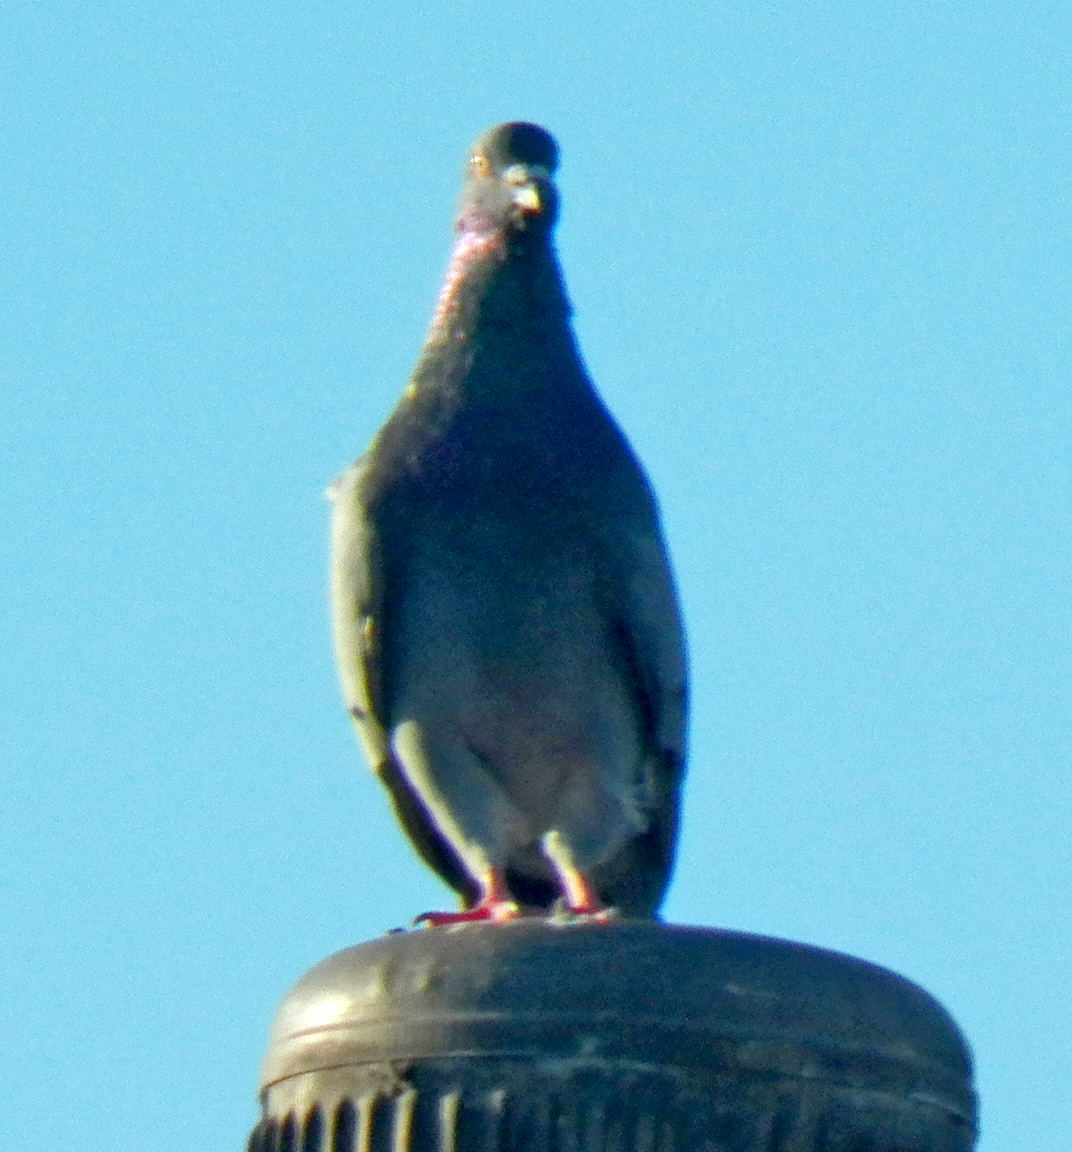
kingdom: Animalia
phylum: Chordata
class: Aves
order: Columbiformes
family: Columbidae
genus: Columba
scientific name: Columba livia
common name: Rock pigeon
